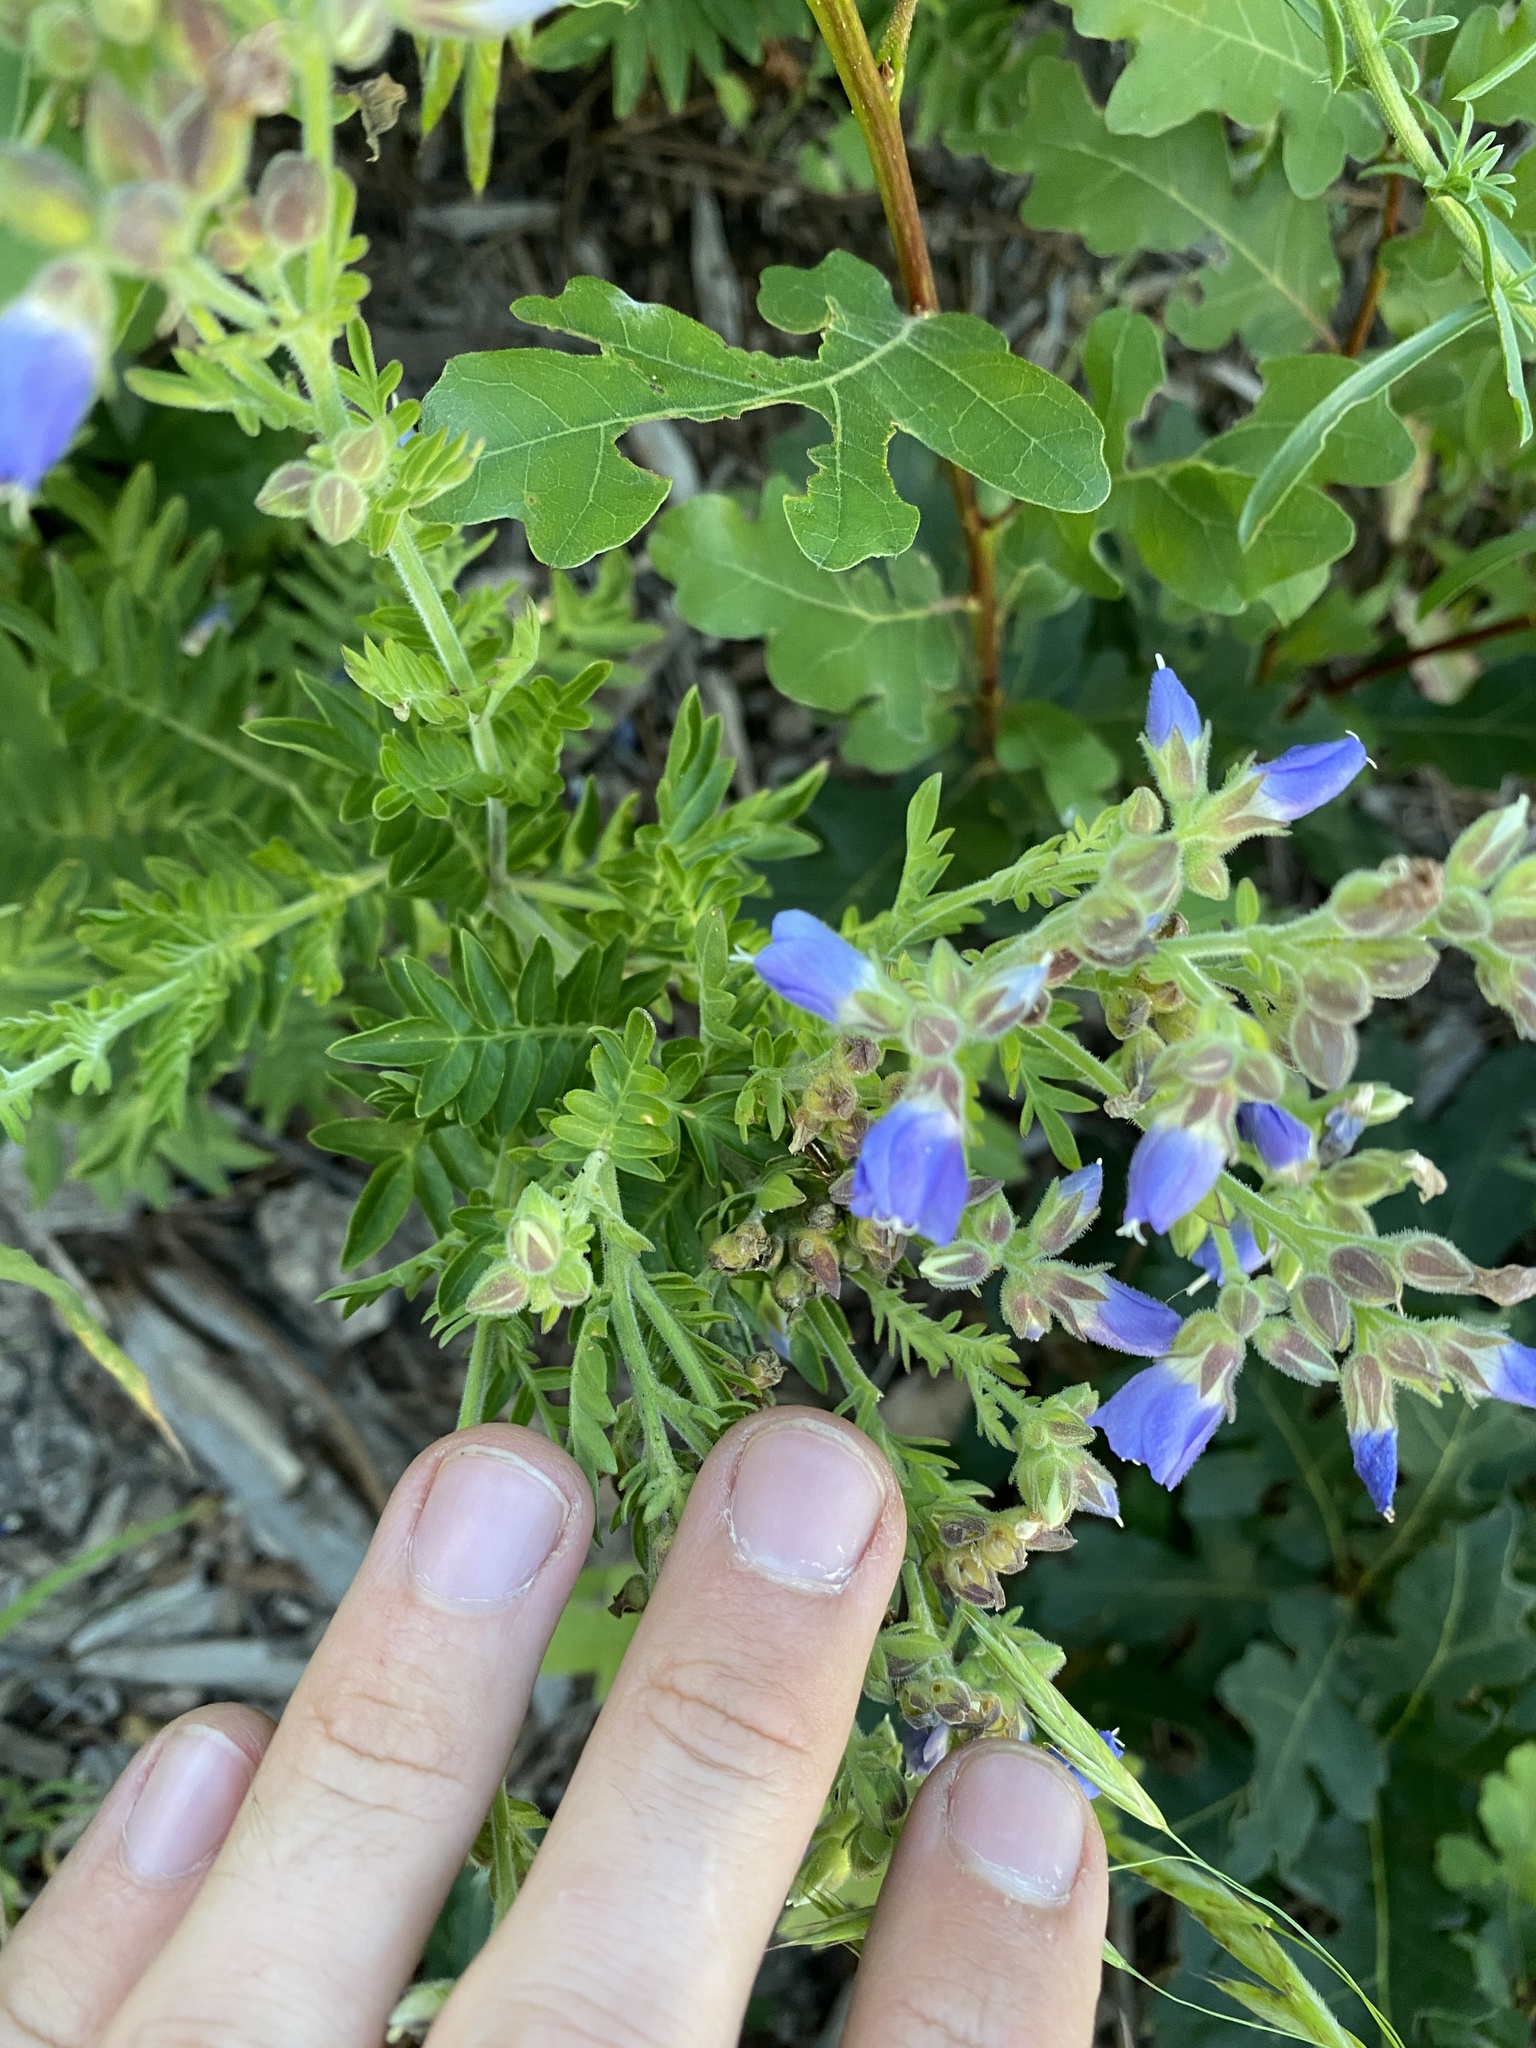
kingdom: Plantae
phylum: Tracheophyta
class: Magnoliopsida
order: Ericales
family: Polemoniaceae
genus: Polemonium
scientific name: Polemonium foliosissimum
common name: Leafy jacob's-ladder
